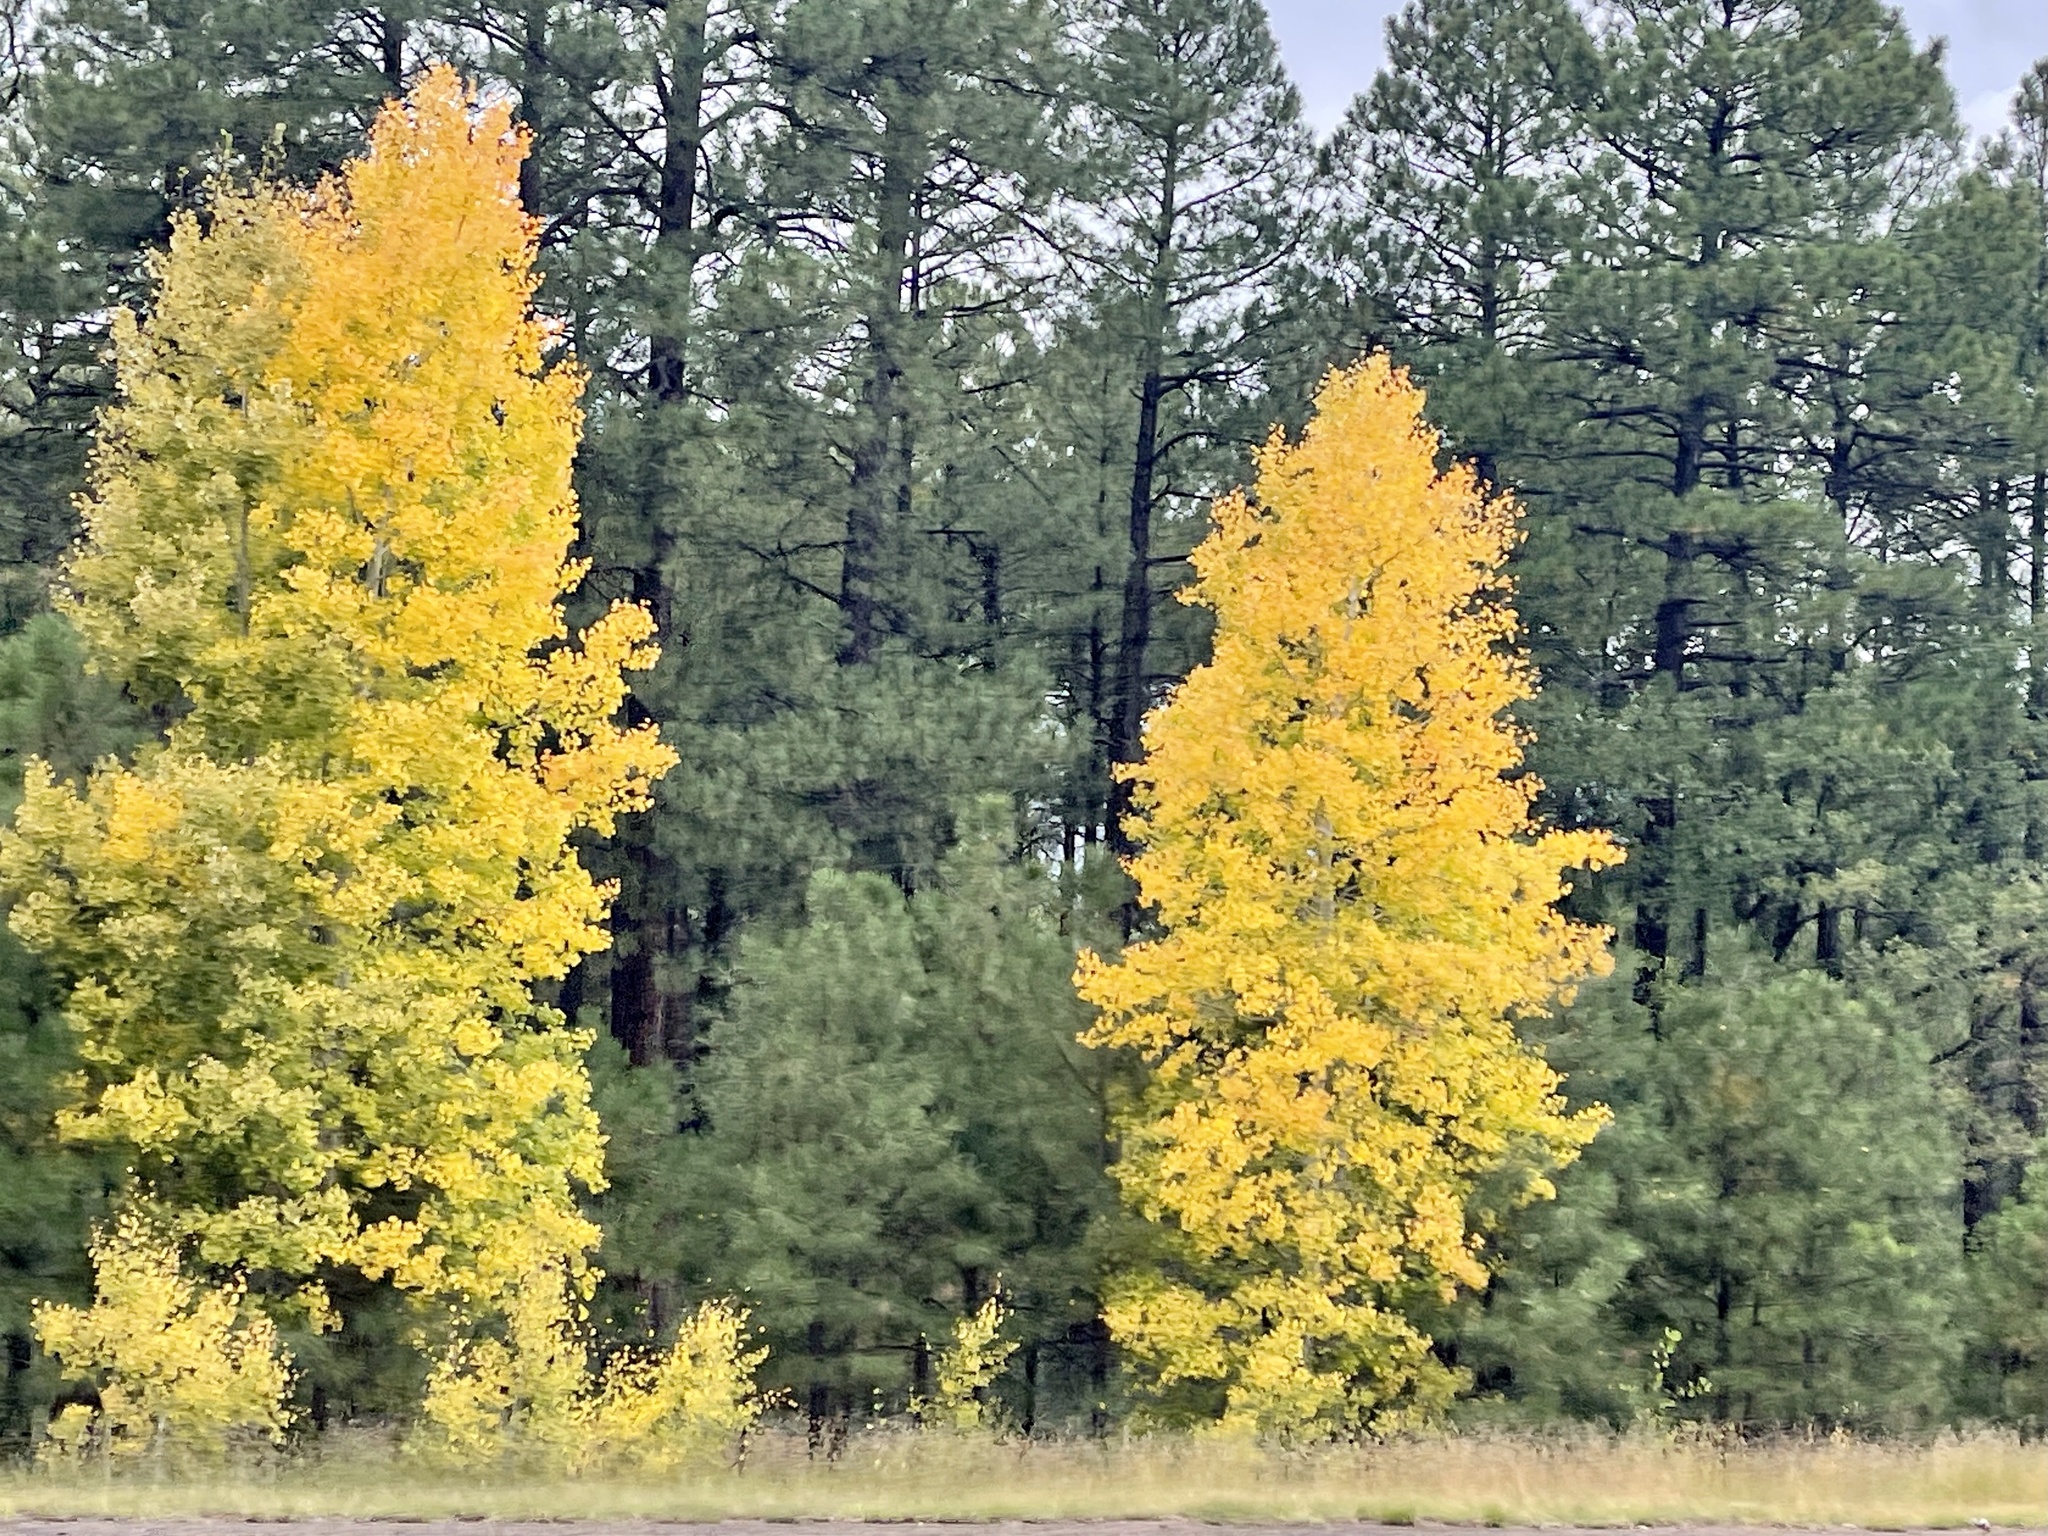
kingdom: Plantae
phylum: Tracheophyta
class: Magnoliopsida
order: Malpighiales
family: Salicaceae
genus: Populus
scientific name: Populus tremuloides
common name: Quaking aspen
